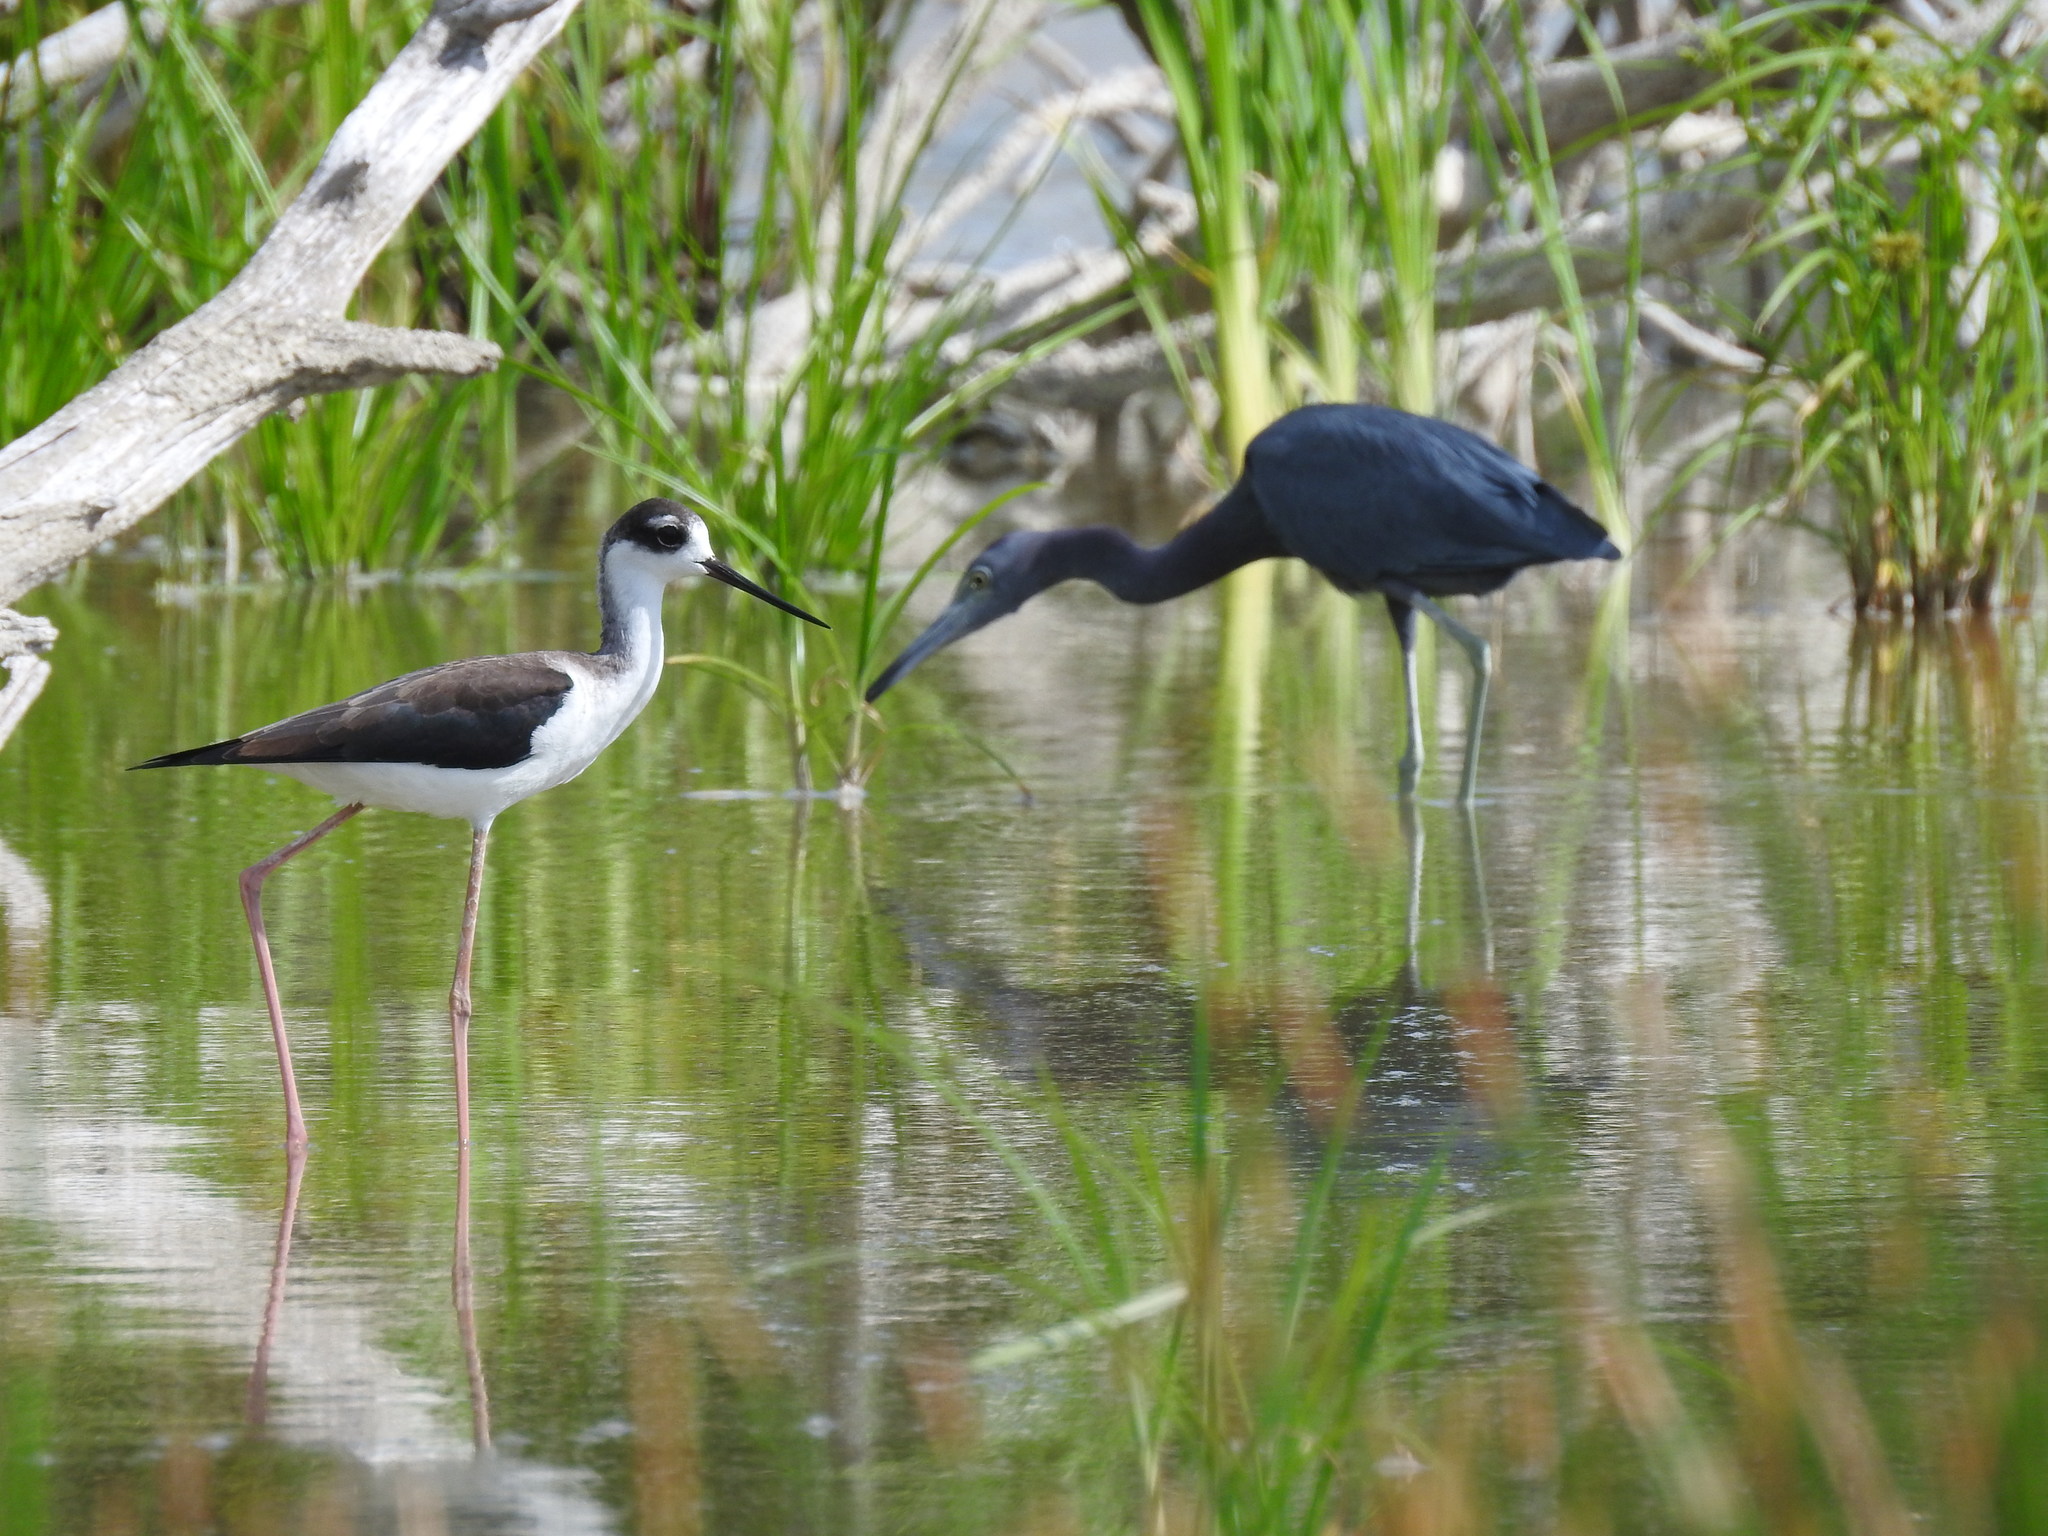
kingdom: Animalia
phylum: Chordata
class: Aves
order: Pelecaniformes
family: Ardeidae
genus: Egretta
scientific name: Egretta caerulea
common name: Little blue heron
